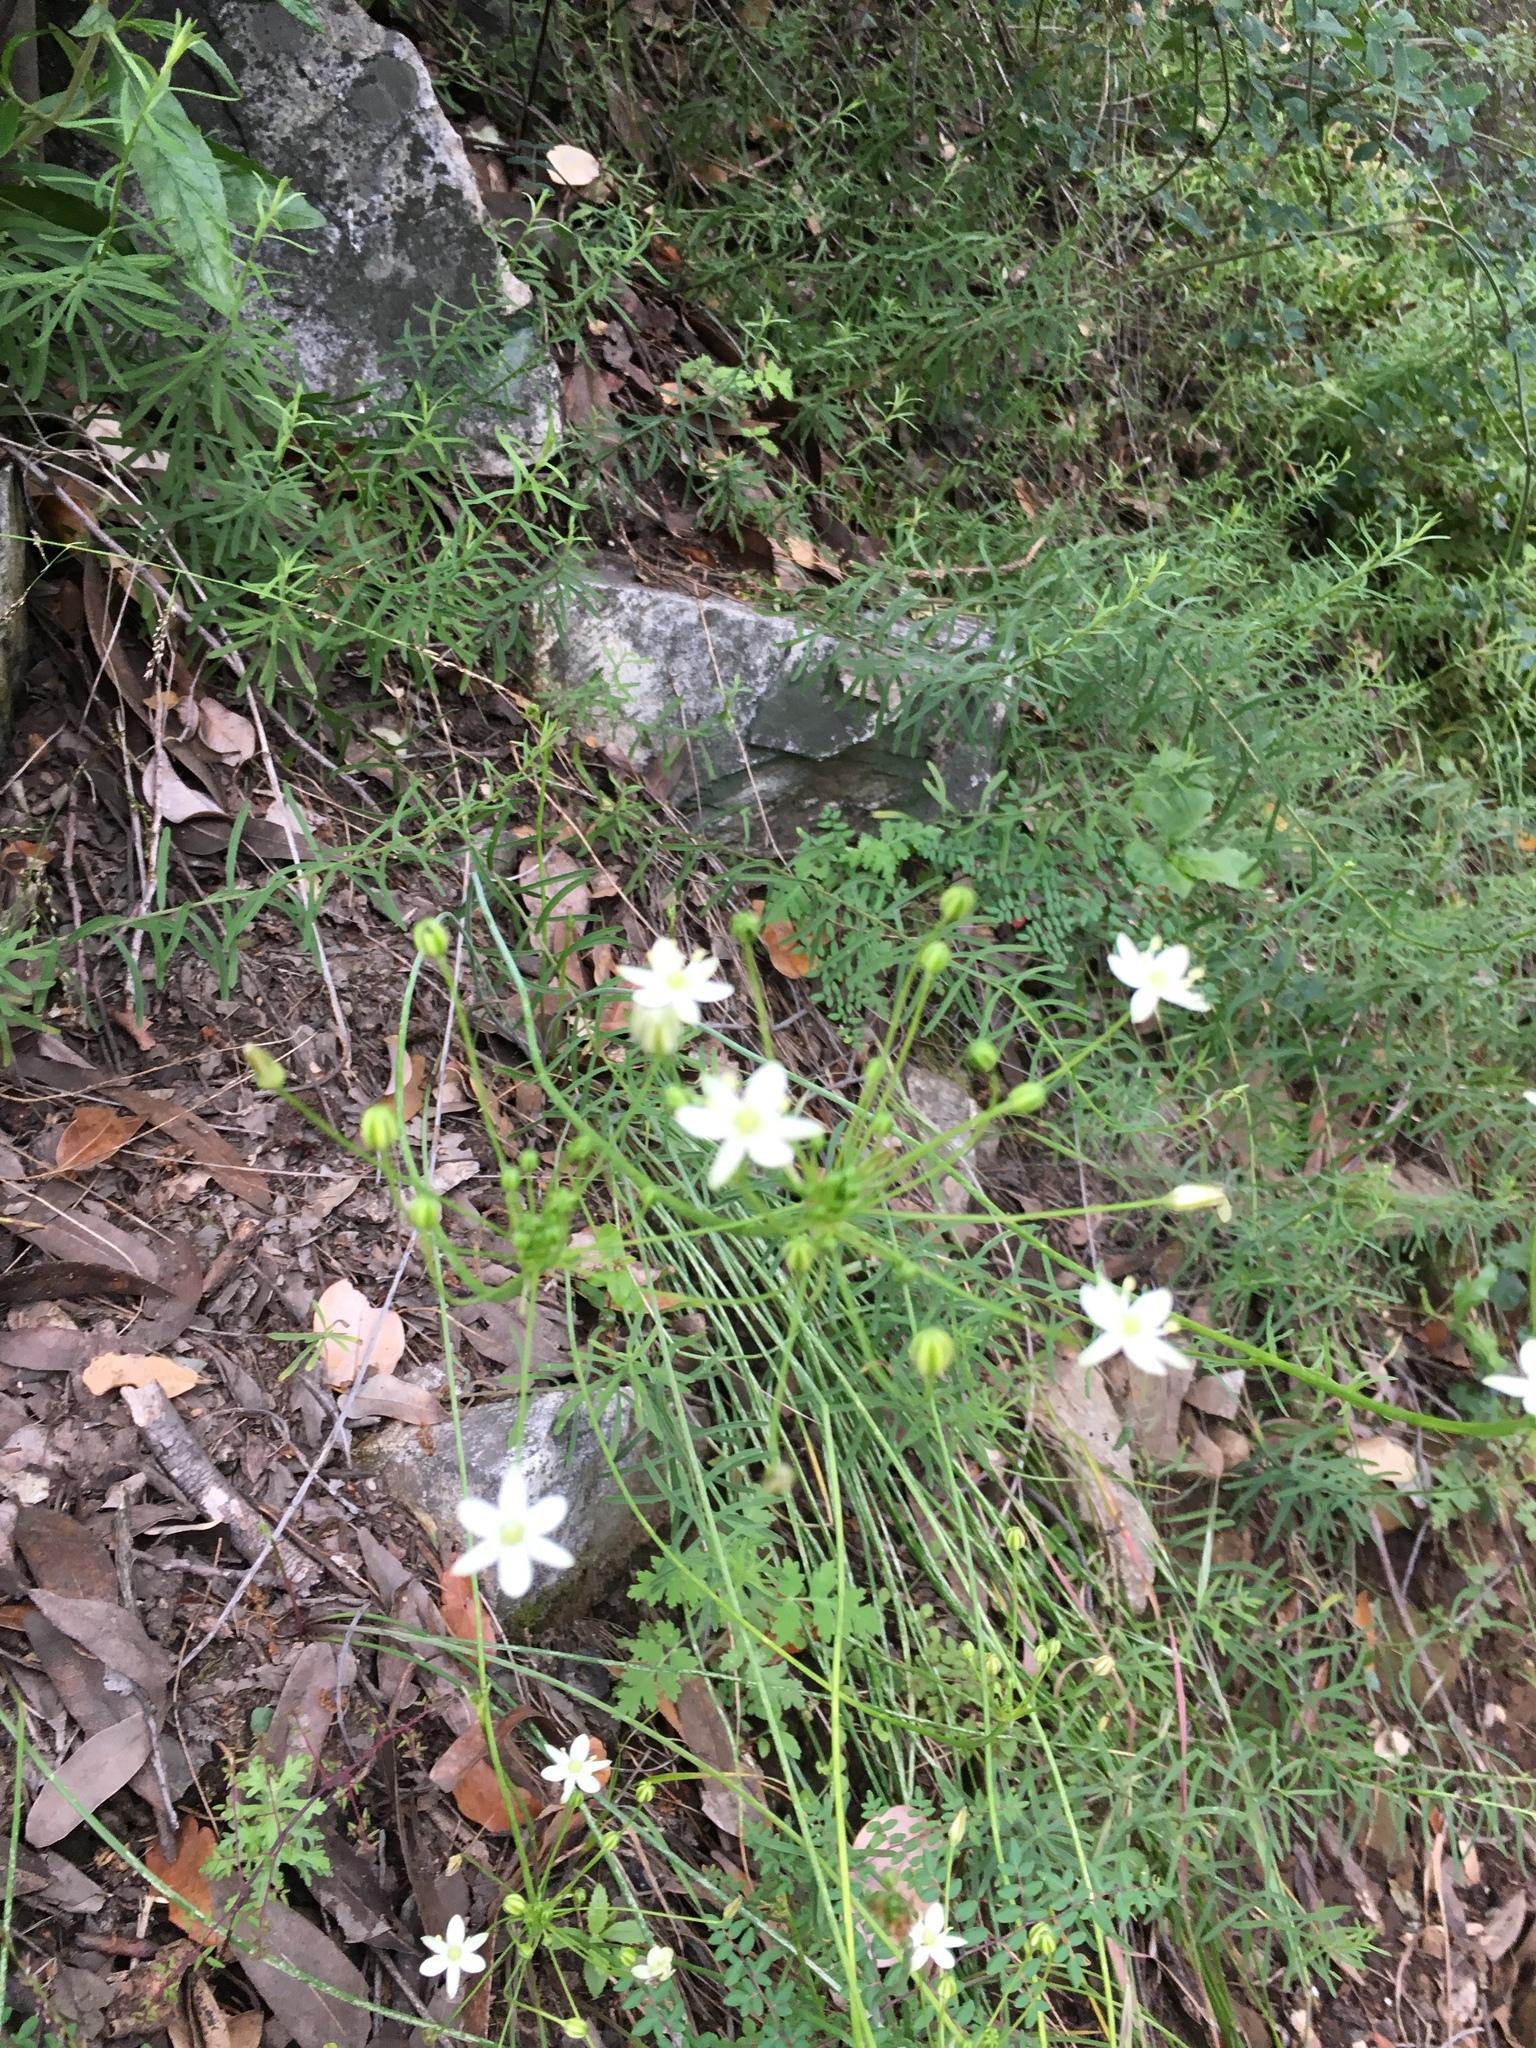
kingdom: Plantae
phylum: Tracheophyta
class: Liliopsida
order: Asparagales
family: Asparagaceae
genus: Muilla
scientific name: Muilla maritima
